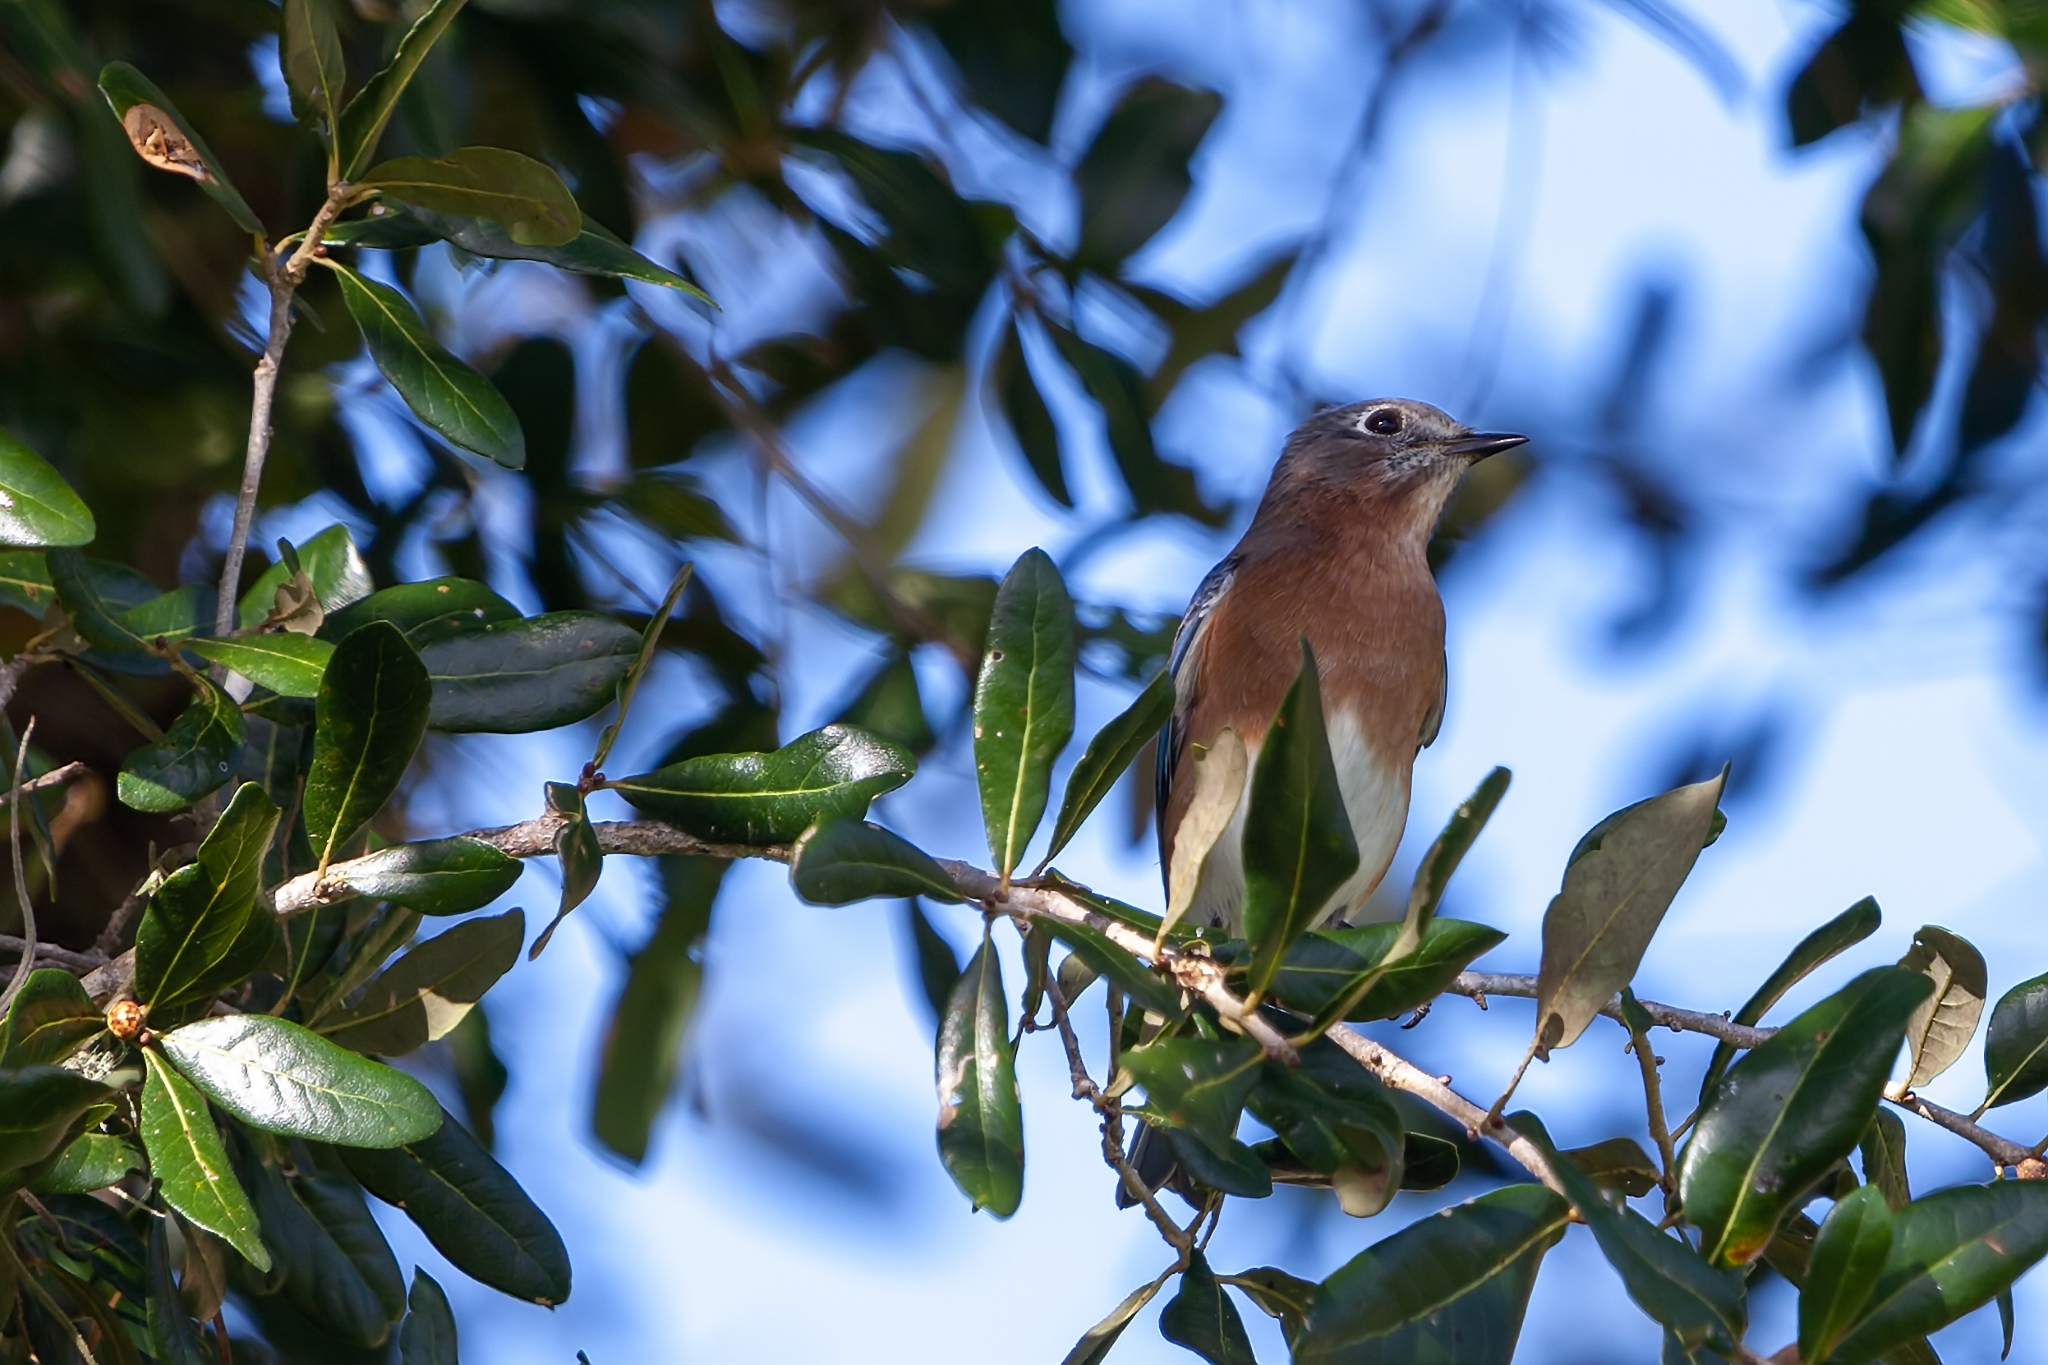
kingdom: Animalia
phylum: Chordata
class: Aves
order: Passeriformes
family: Turdidae
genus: Sialia
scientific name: Sialia sialis
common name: Eastern bluebird
